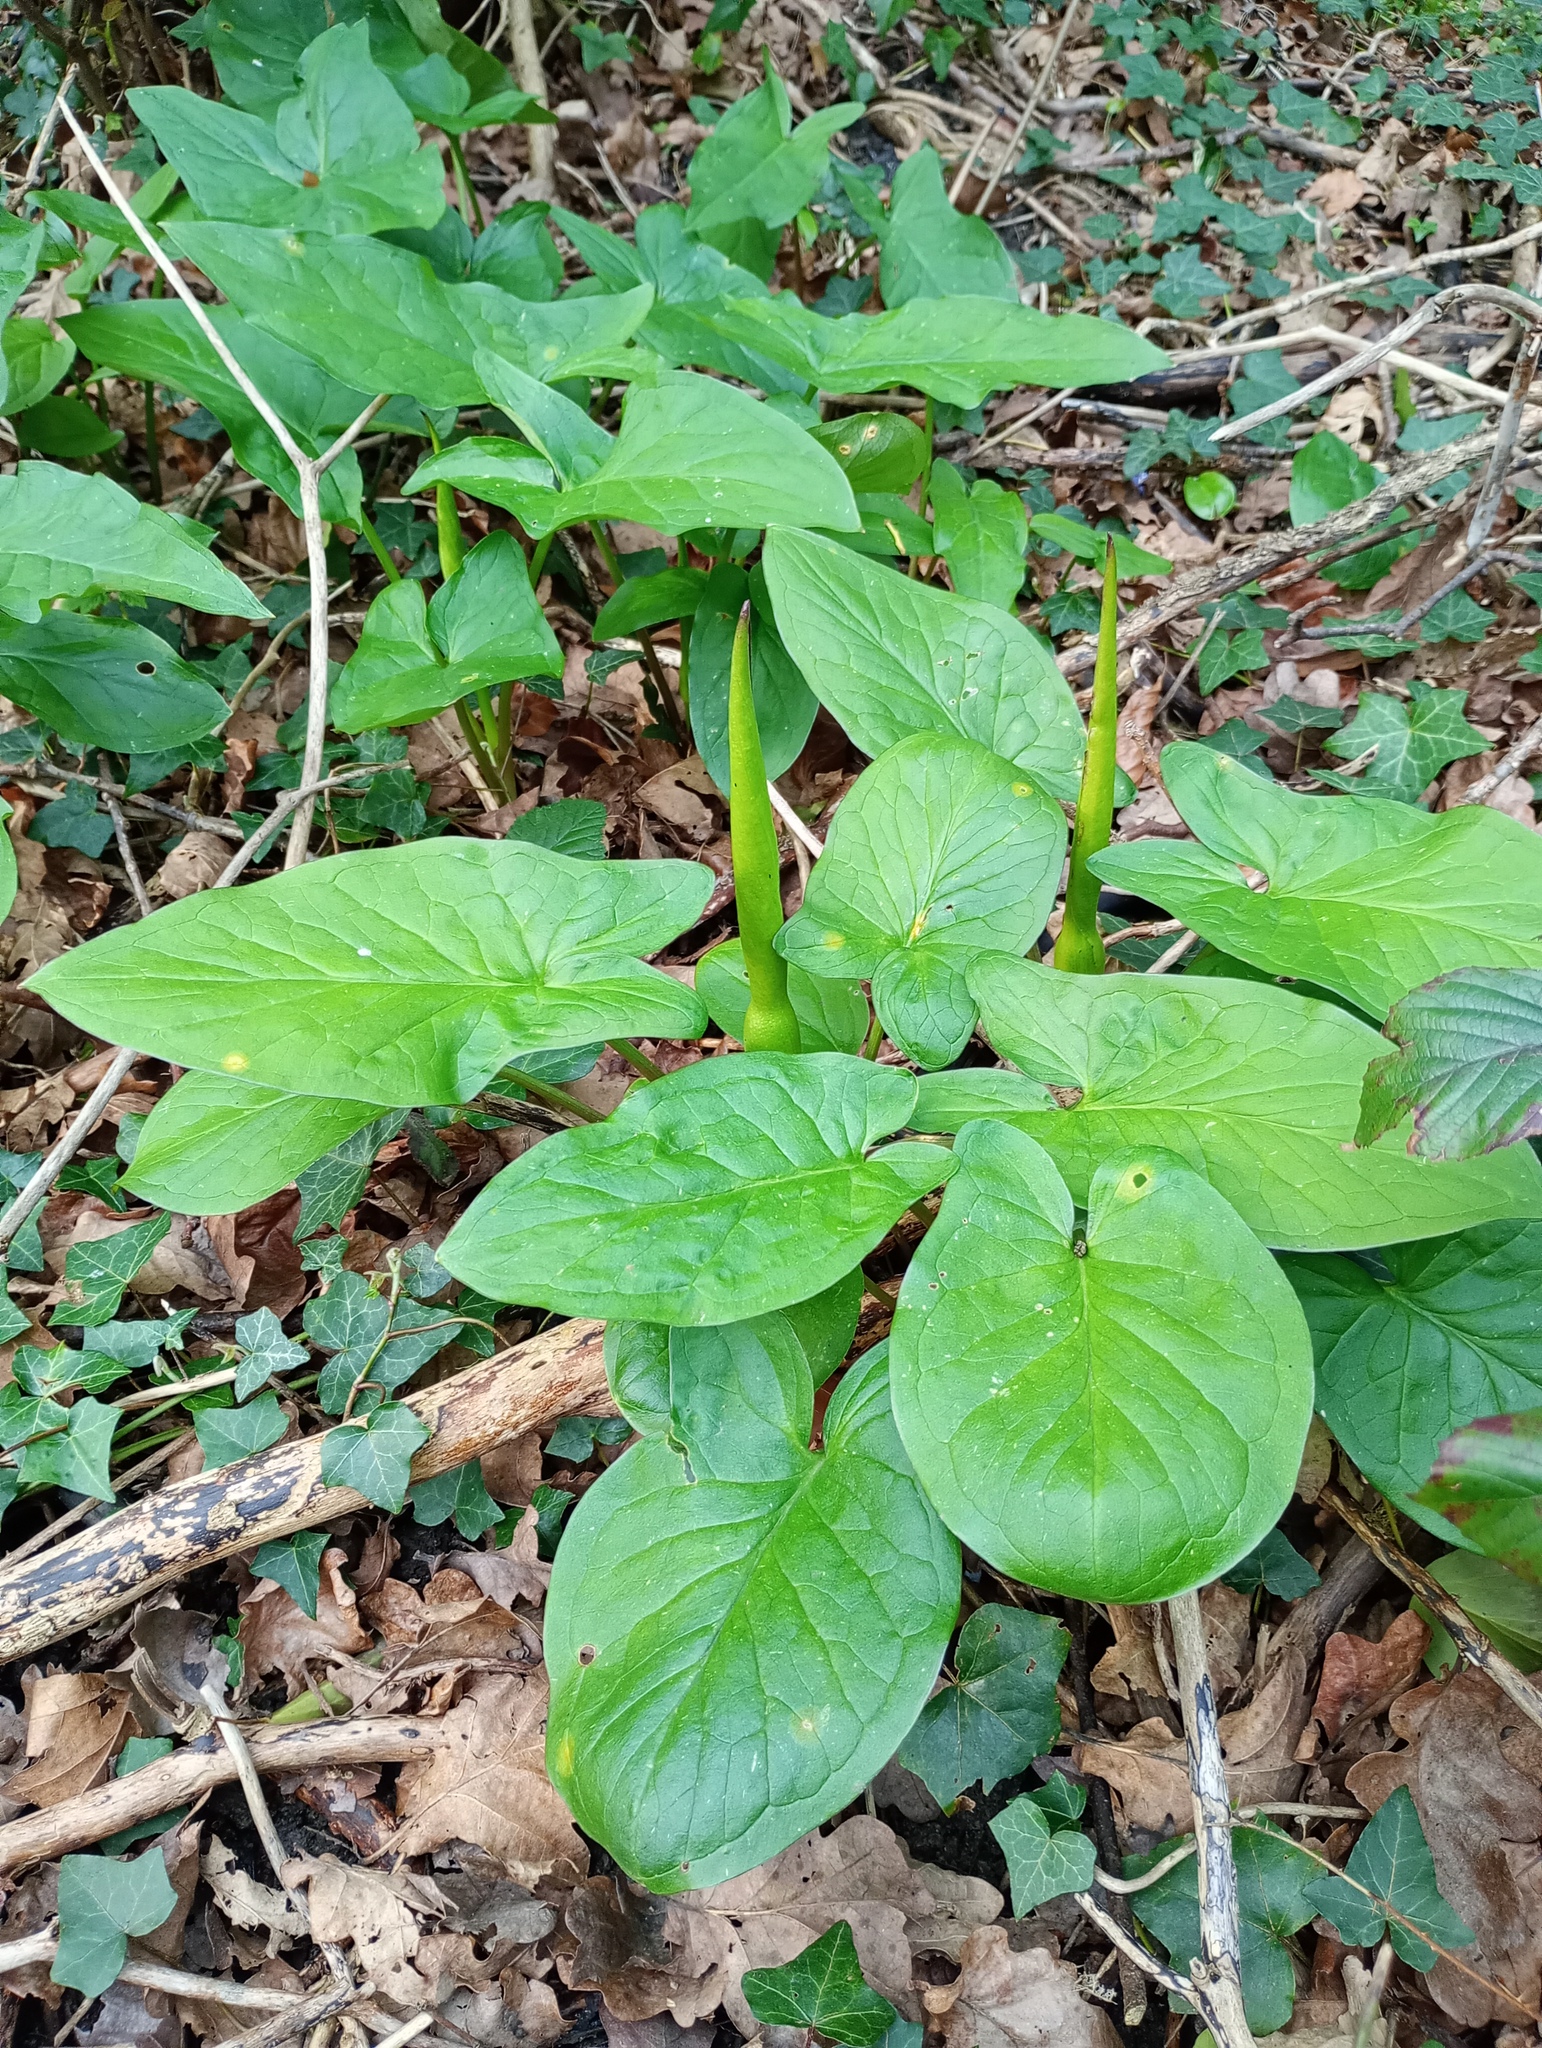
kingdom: Plantae
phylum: Tracheophyta
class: Liliopsida
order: Alismatales
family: Araceae
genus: Arum
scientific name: Arum maculatum
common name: Lords-and-ladies
